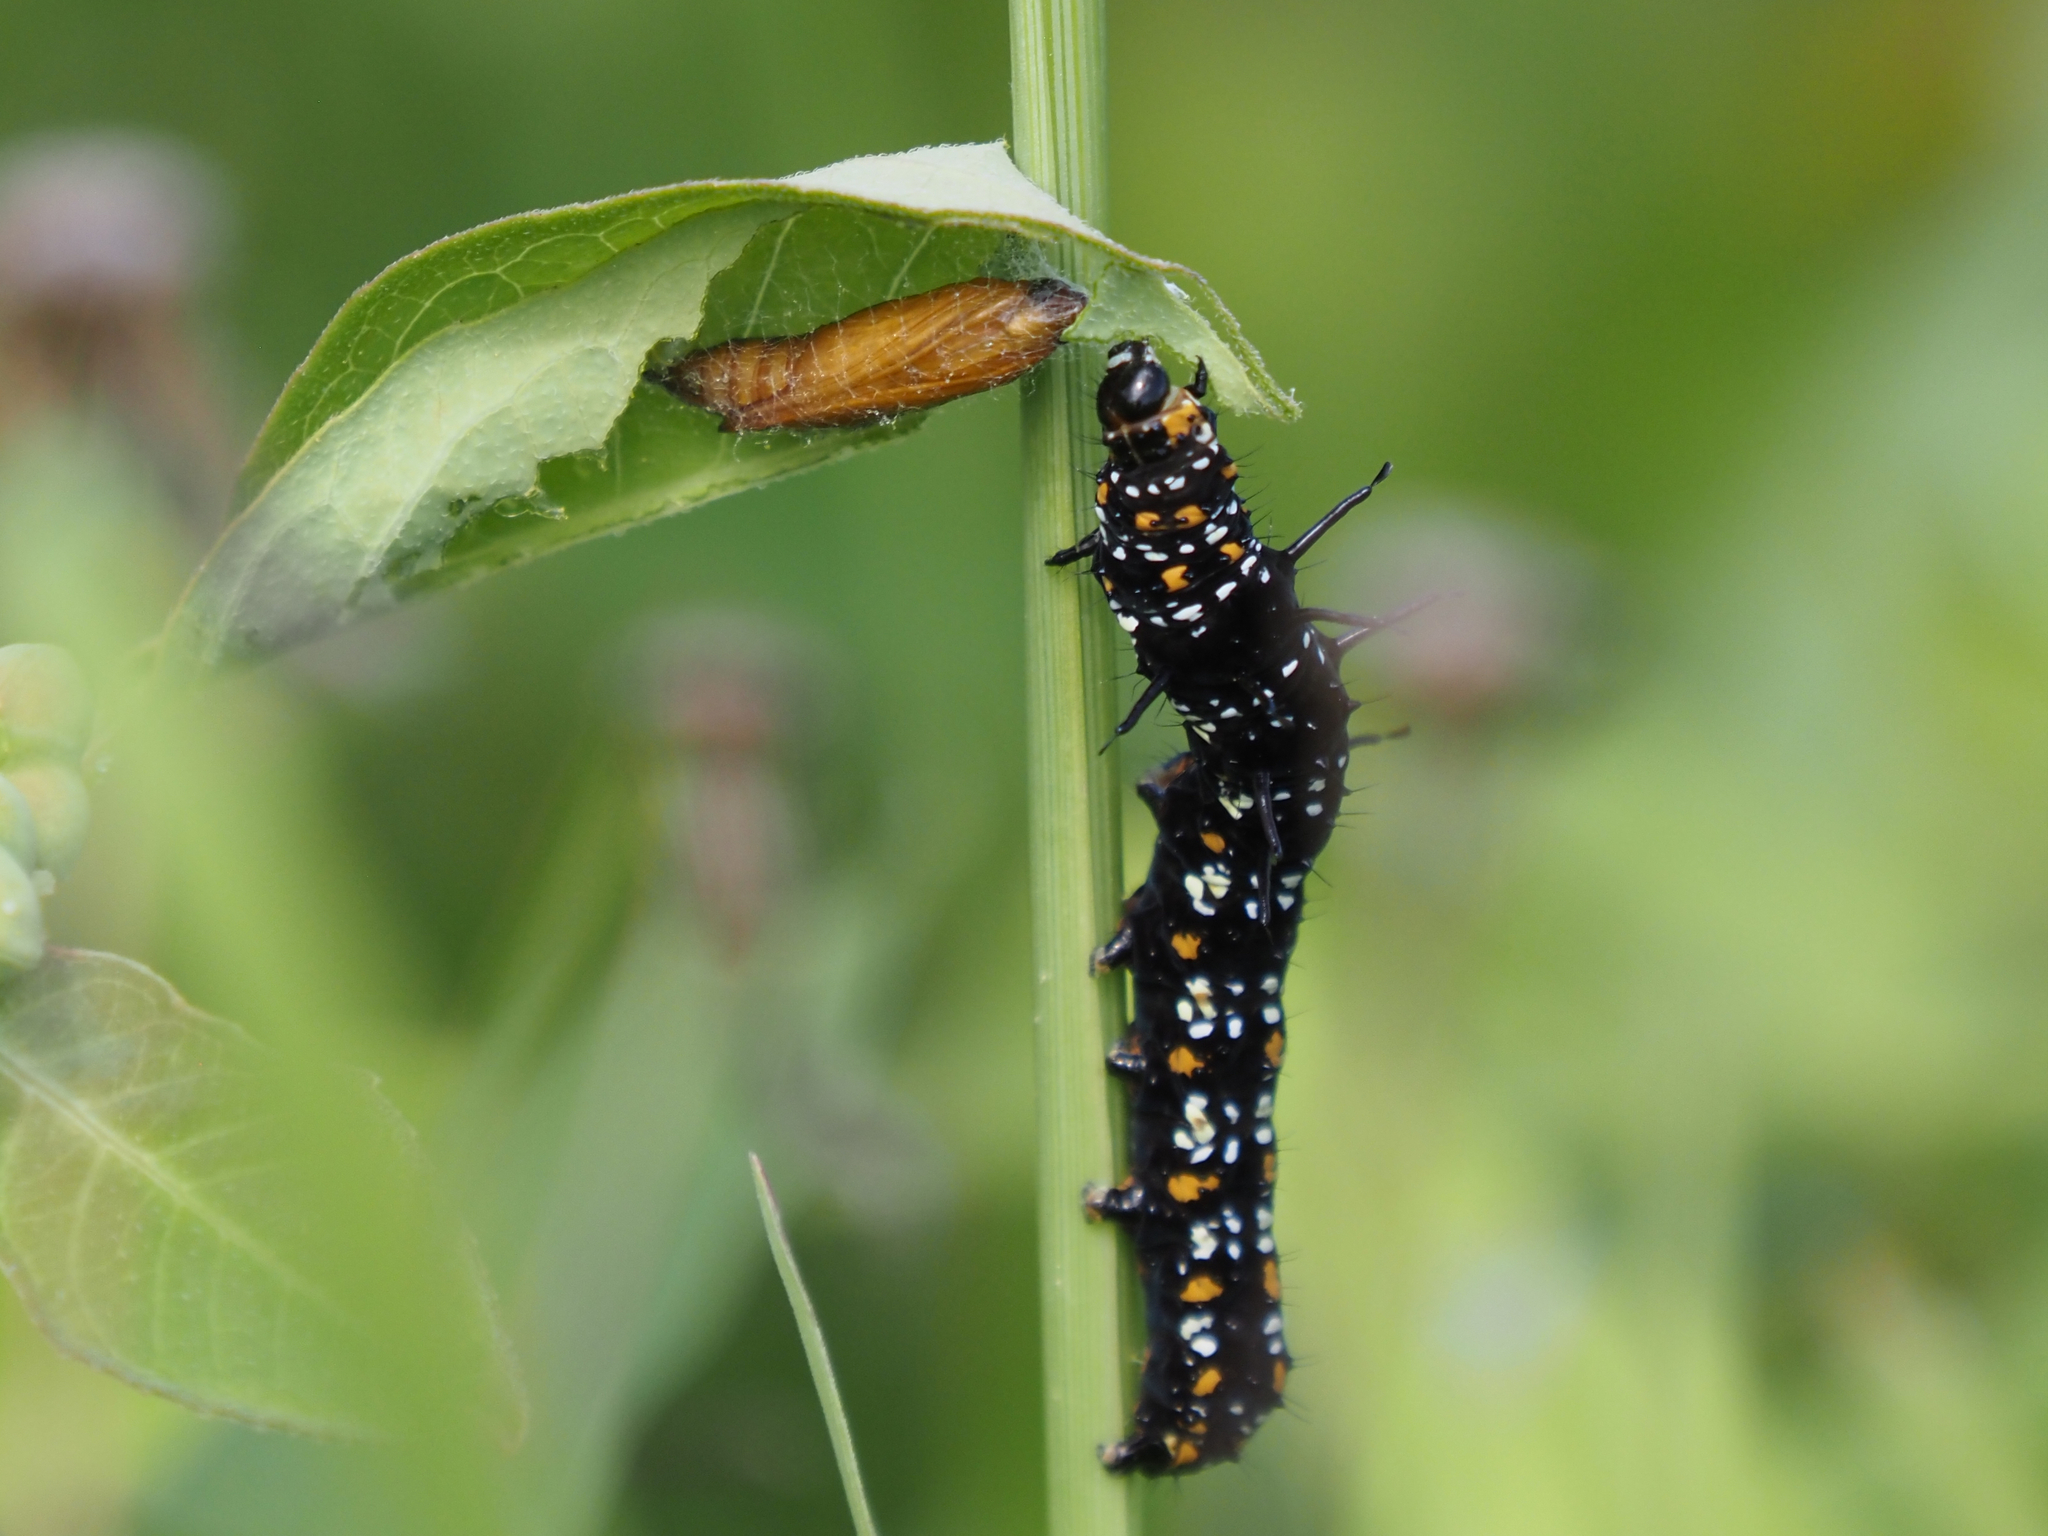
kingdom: Animalia
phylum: Arthropoda
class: Insecta
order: Lepidoptera
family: Noctuidae
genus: Cydosia
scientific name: Cydosia nobilitella
